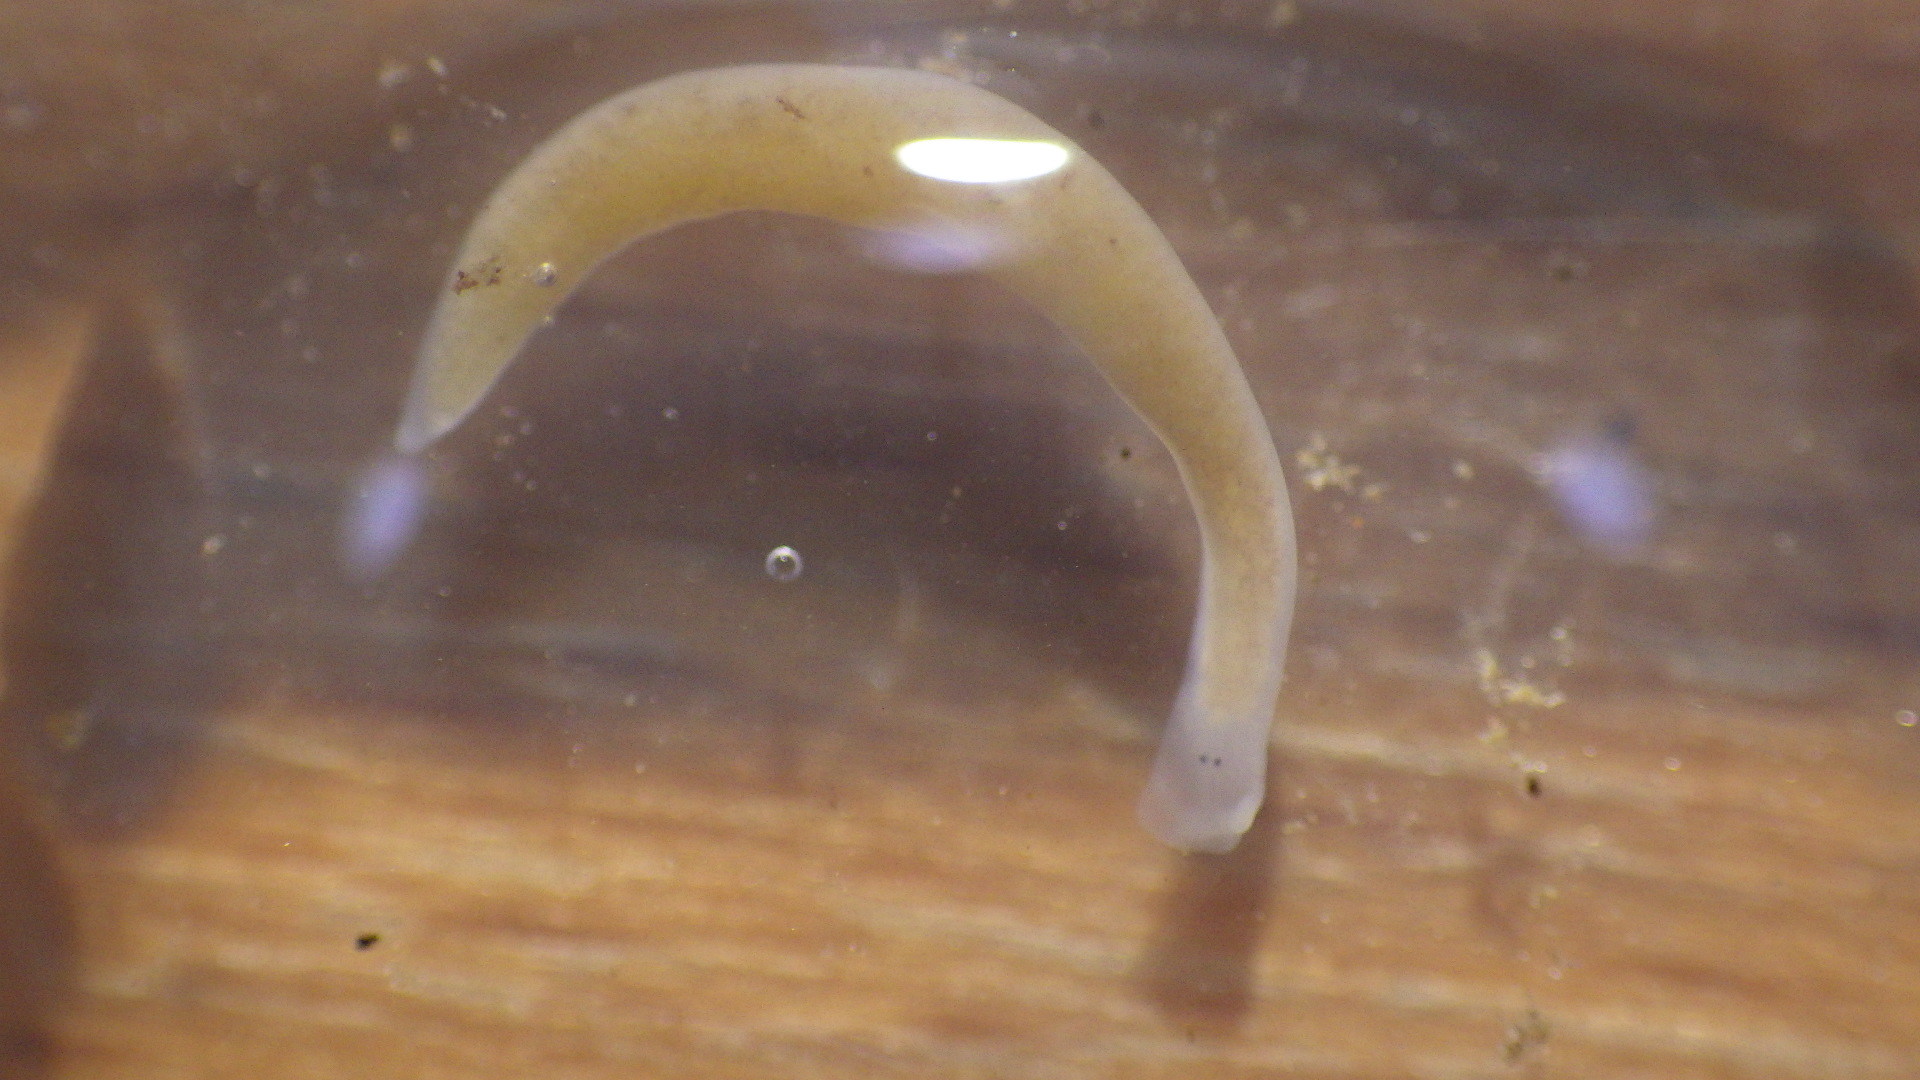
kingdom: Animalia
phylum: Platyhelminthes
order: Tricladida
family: Planariidae
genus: Phagocata
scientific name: Phagocata morgani
